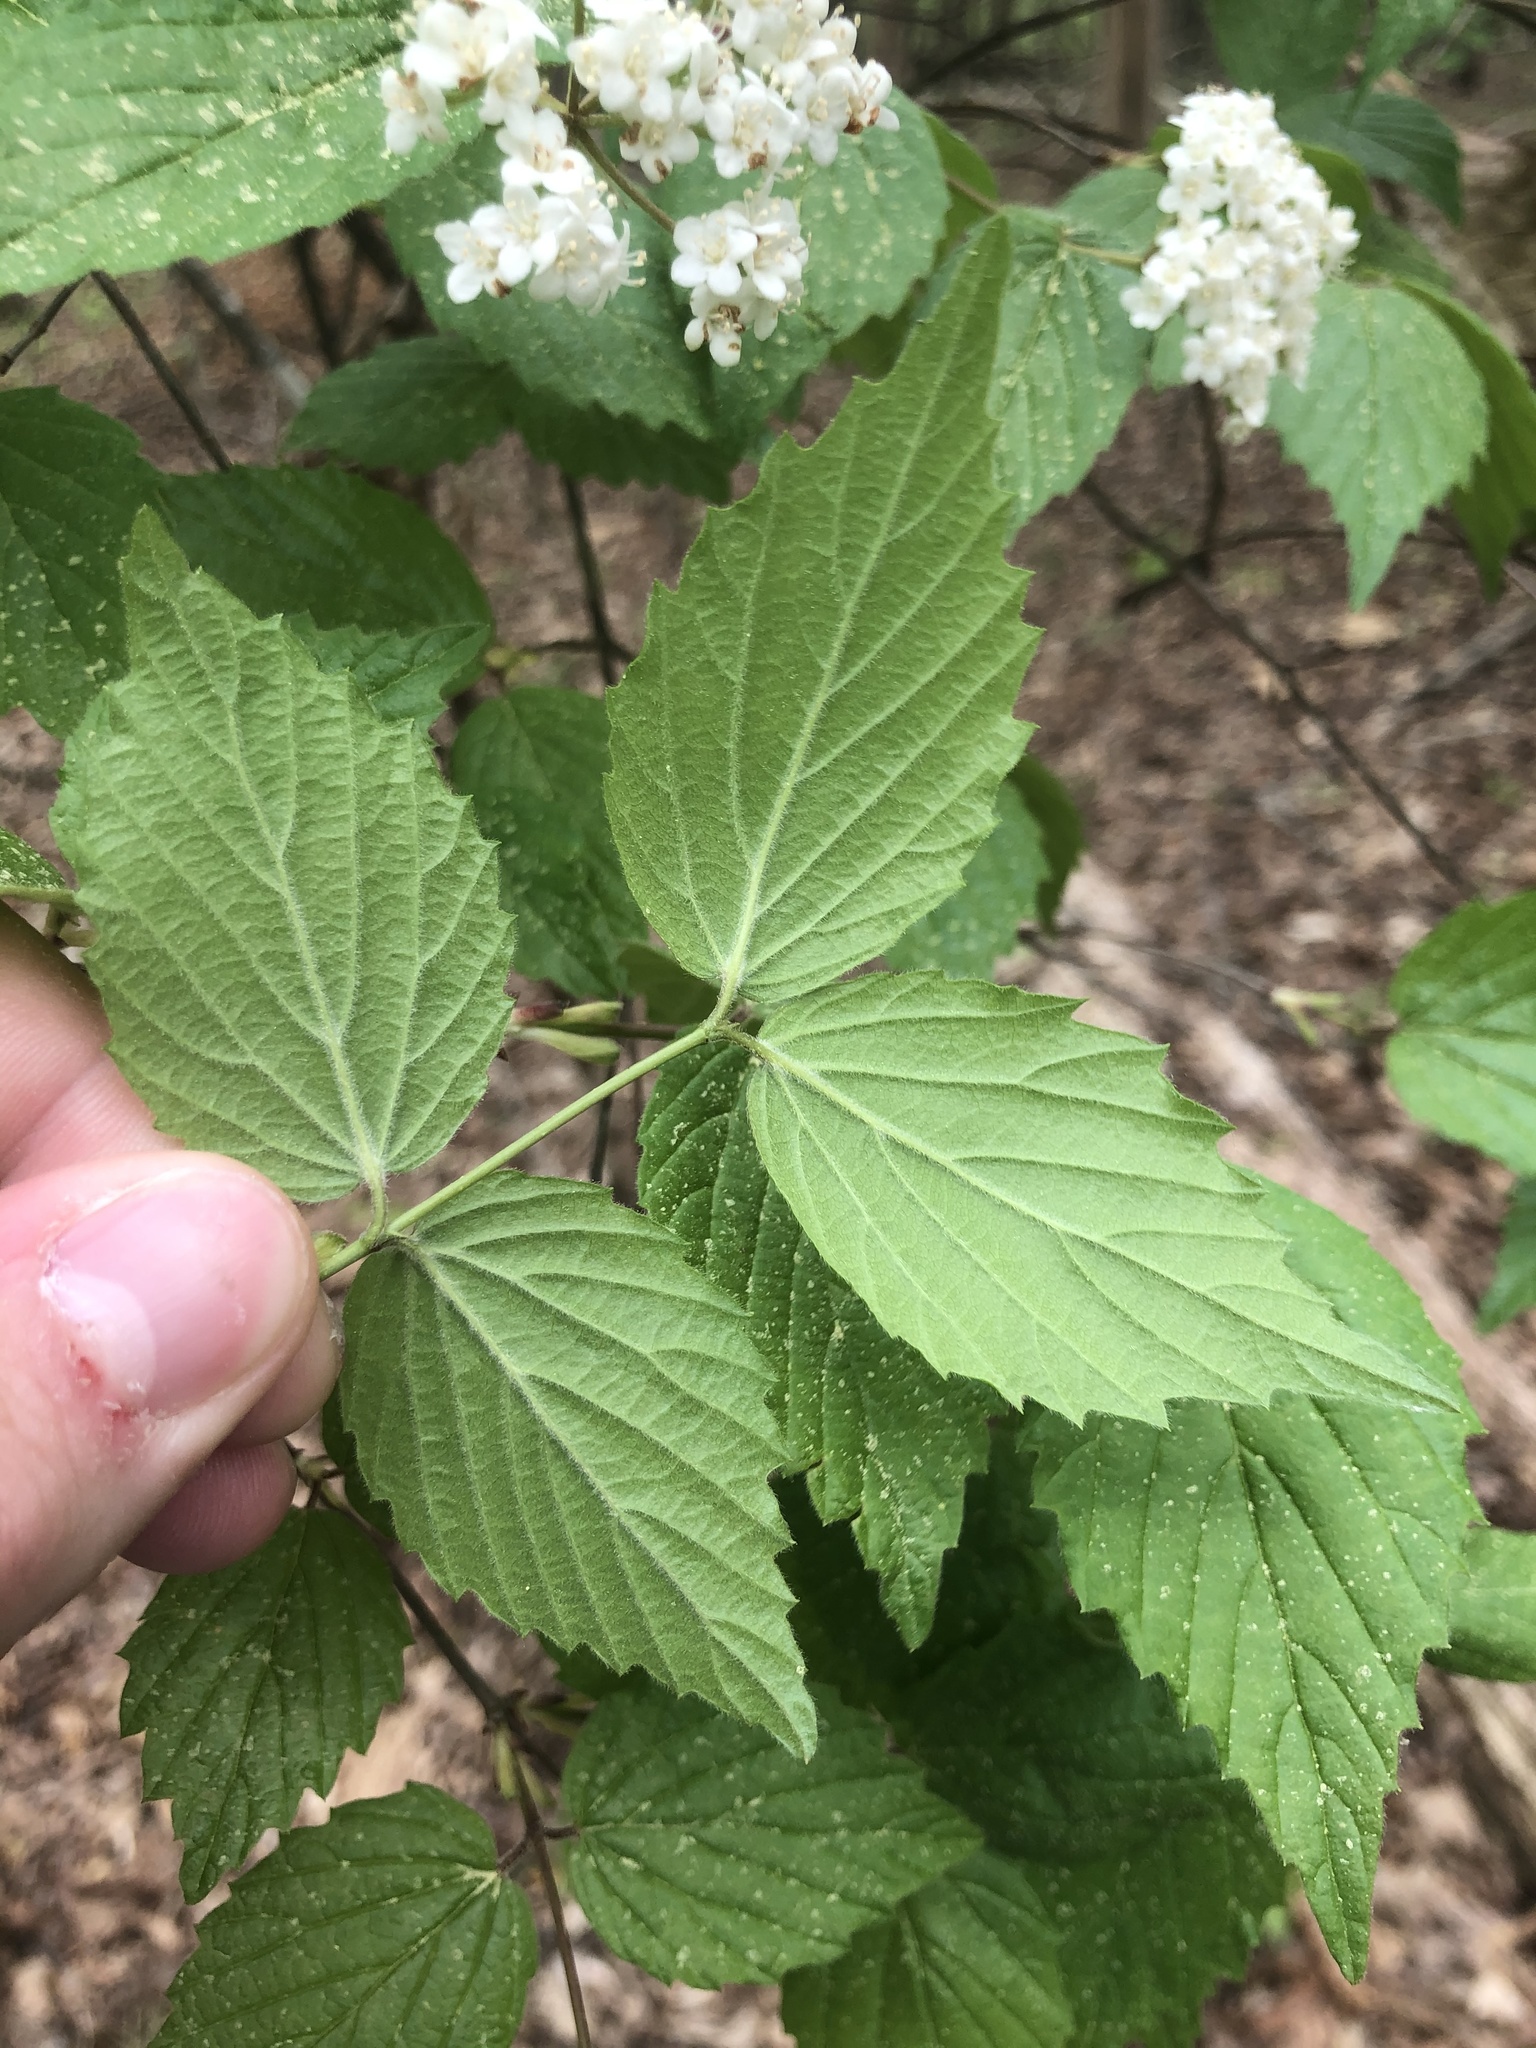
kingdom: Plantae
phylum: Tracheophyta
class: Magnoliopsida
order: Dipsacales
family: Viburnaceae
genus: Viburnum
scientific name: Viburnum rafinesqueanum
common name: Downy arrow-wood
